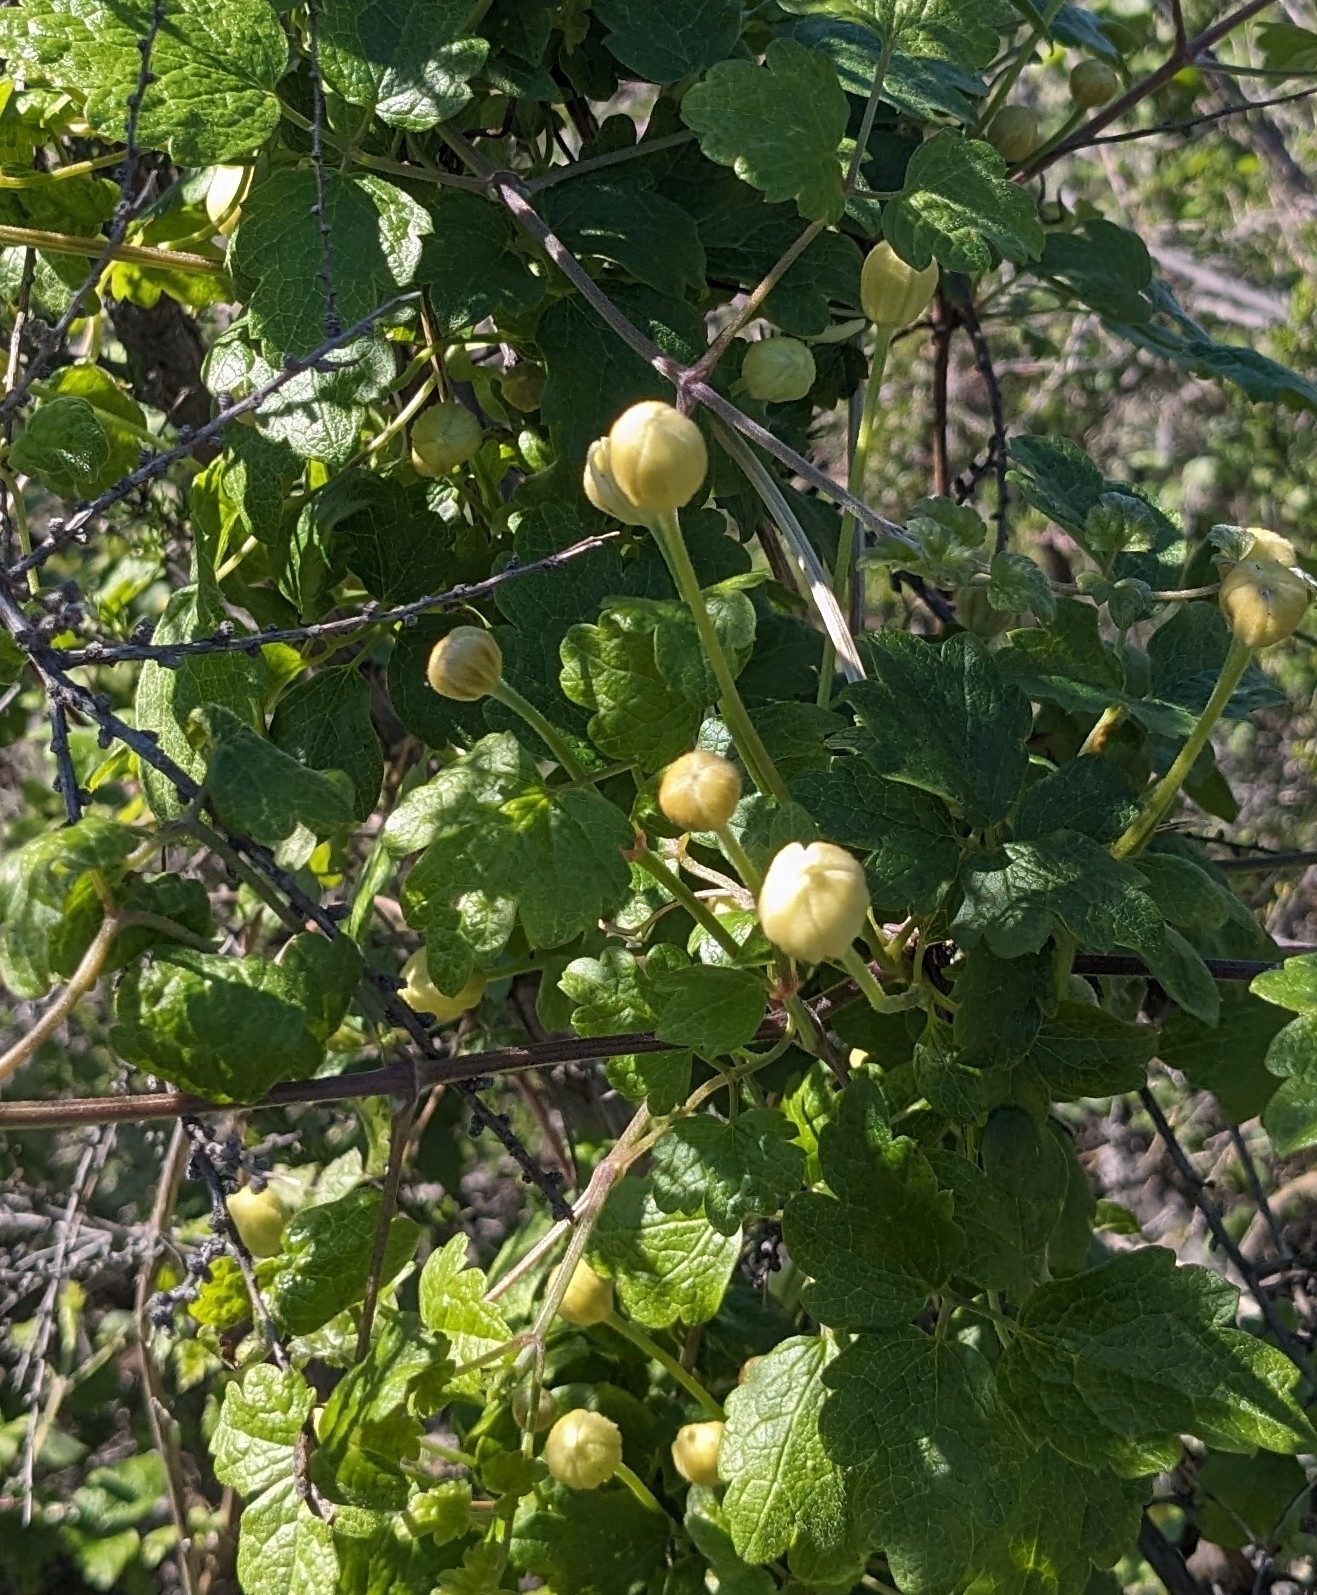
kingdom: Plantae
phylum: Tracheophyta
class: Magnoliopsida
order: Ranunculales
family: Ranunculaceae
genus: Clematis
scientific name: Clematis lasiantha
